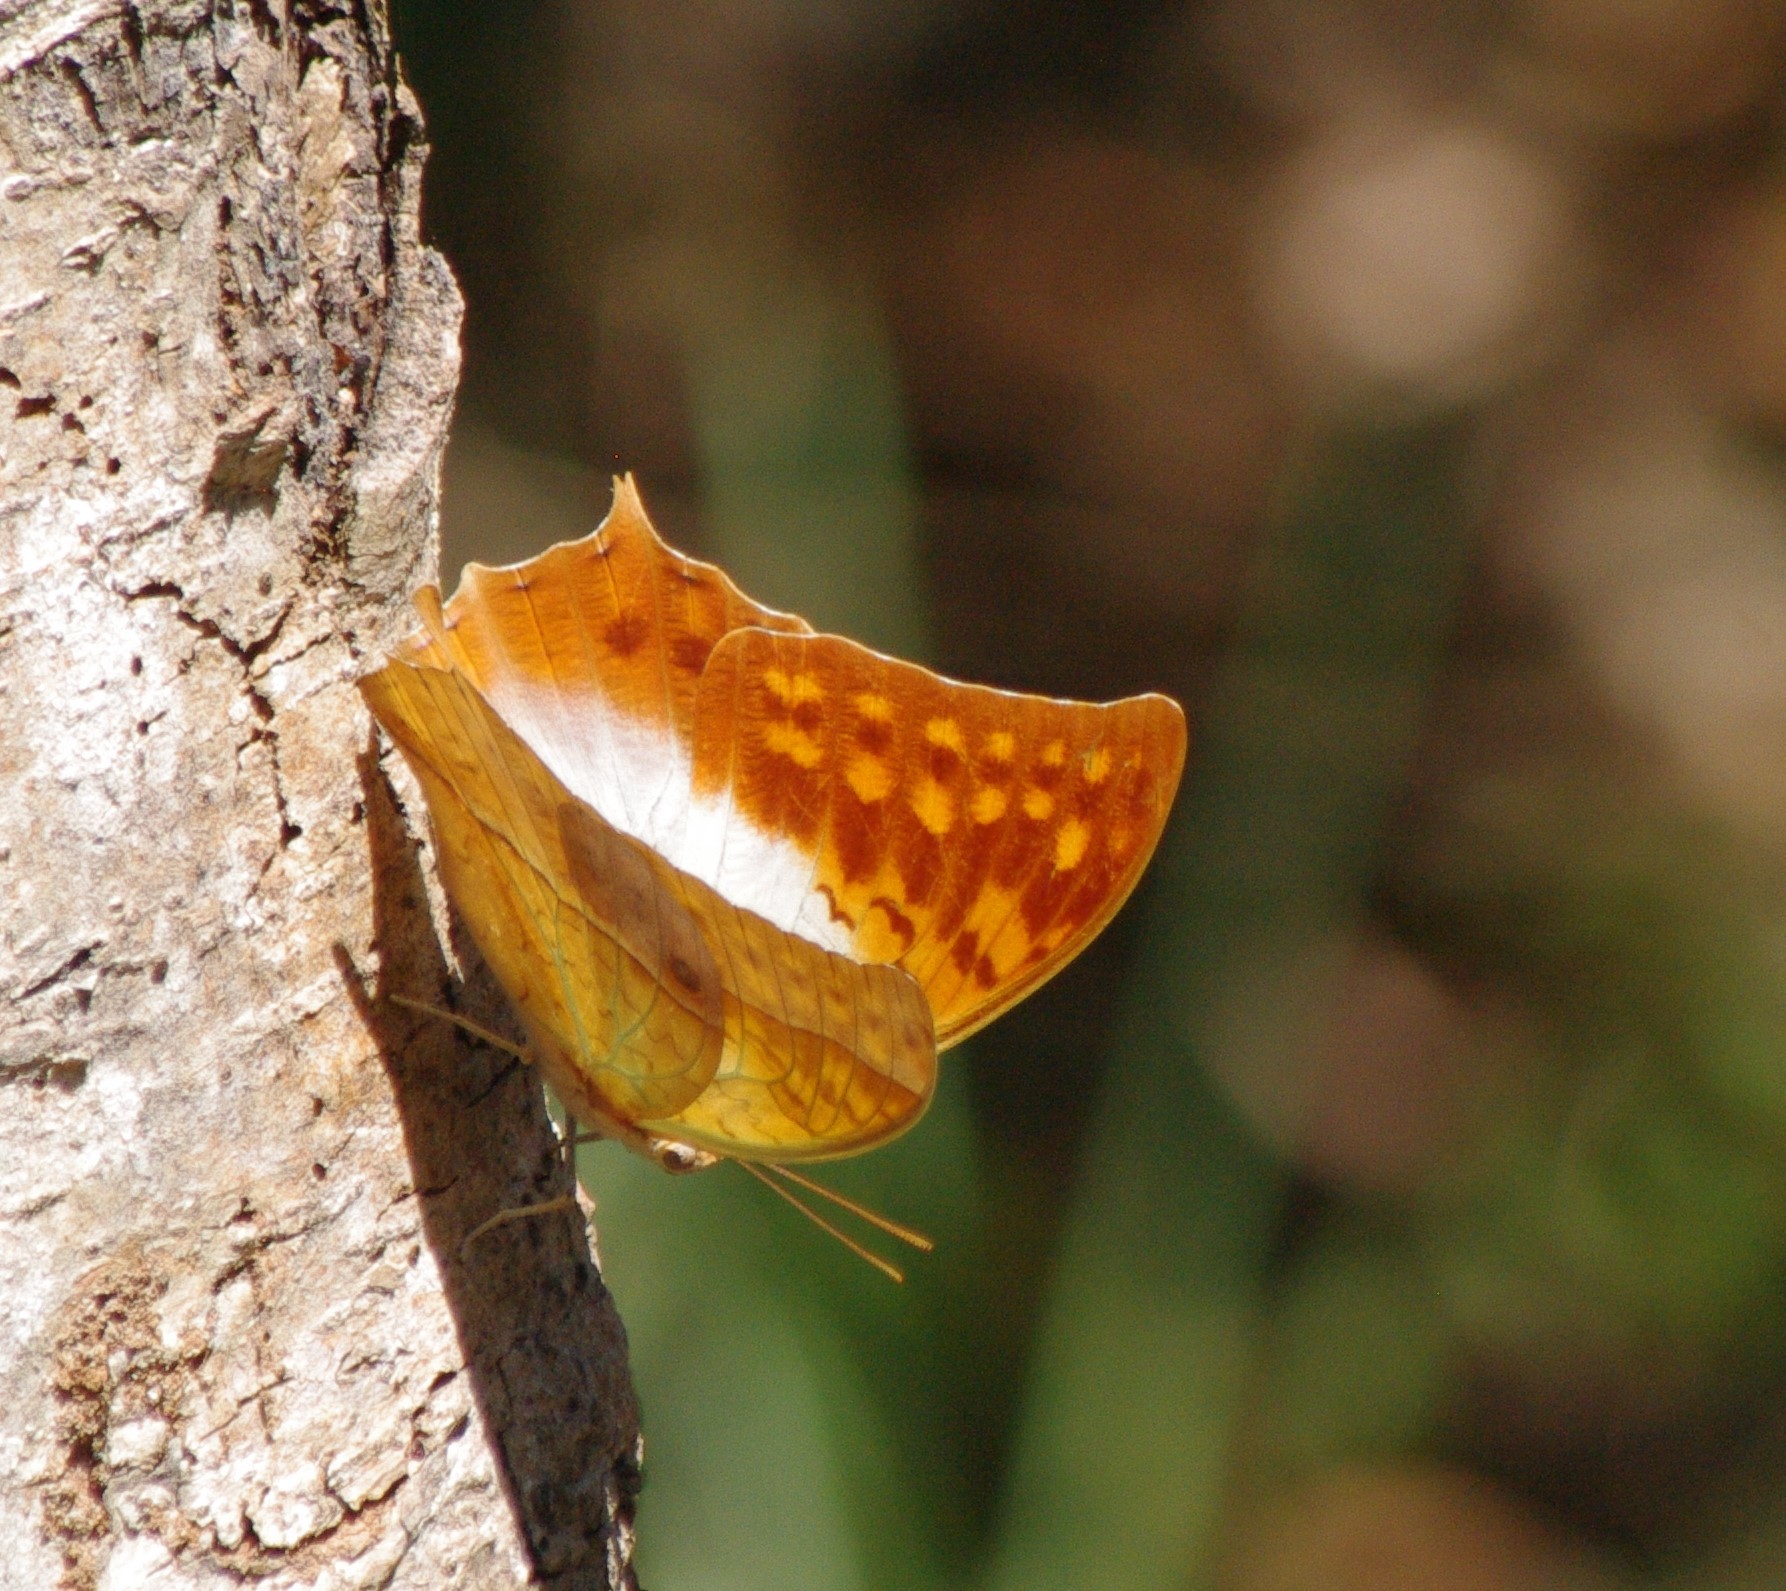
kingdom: Animalia
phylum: Arthropoda
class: Insecta
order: Lepidoptera
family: Nymphalidae
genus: Charaxes
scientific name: Charaxes varanes
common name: Common pearl charaxes
